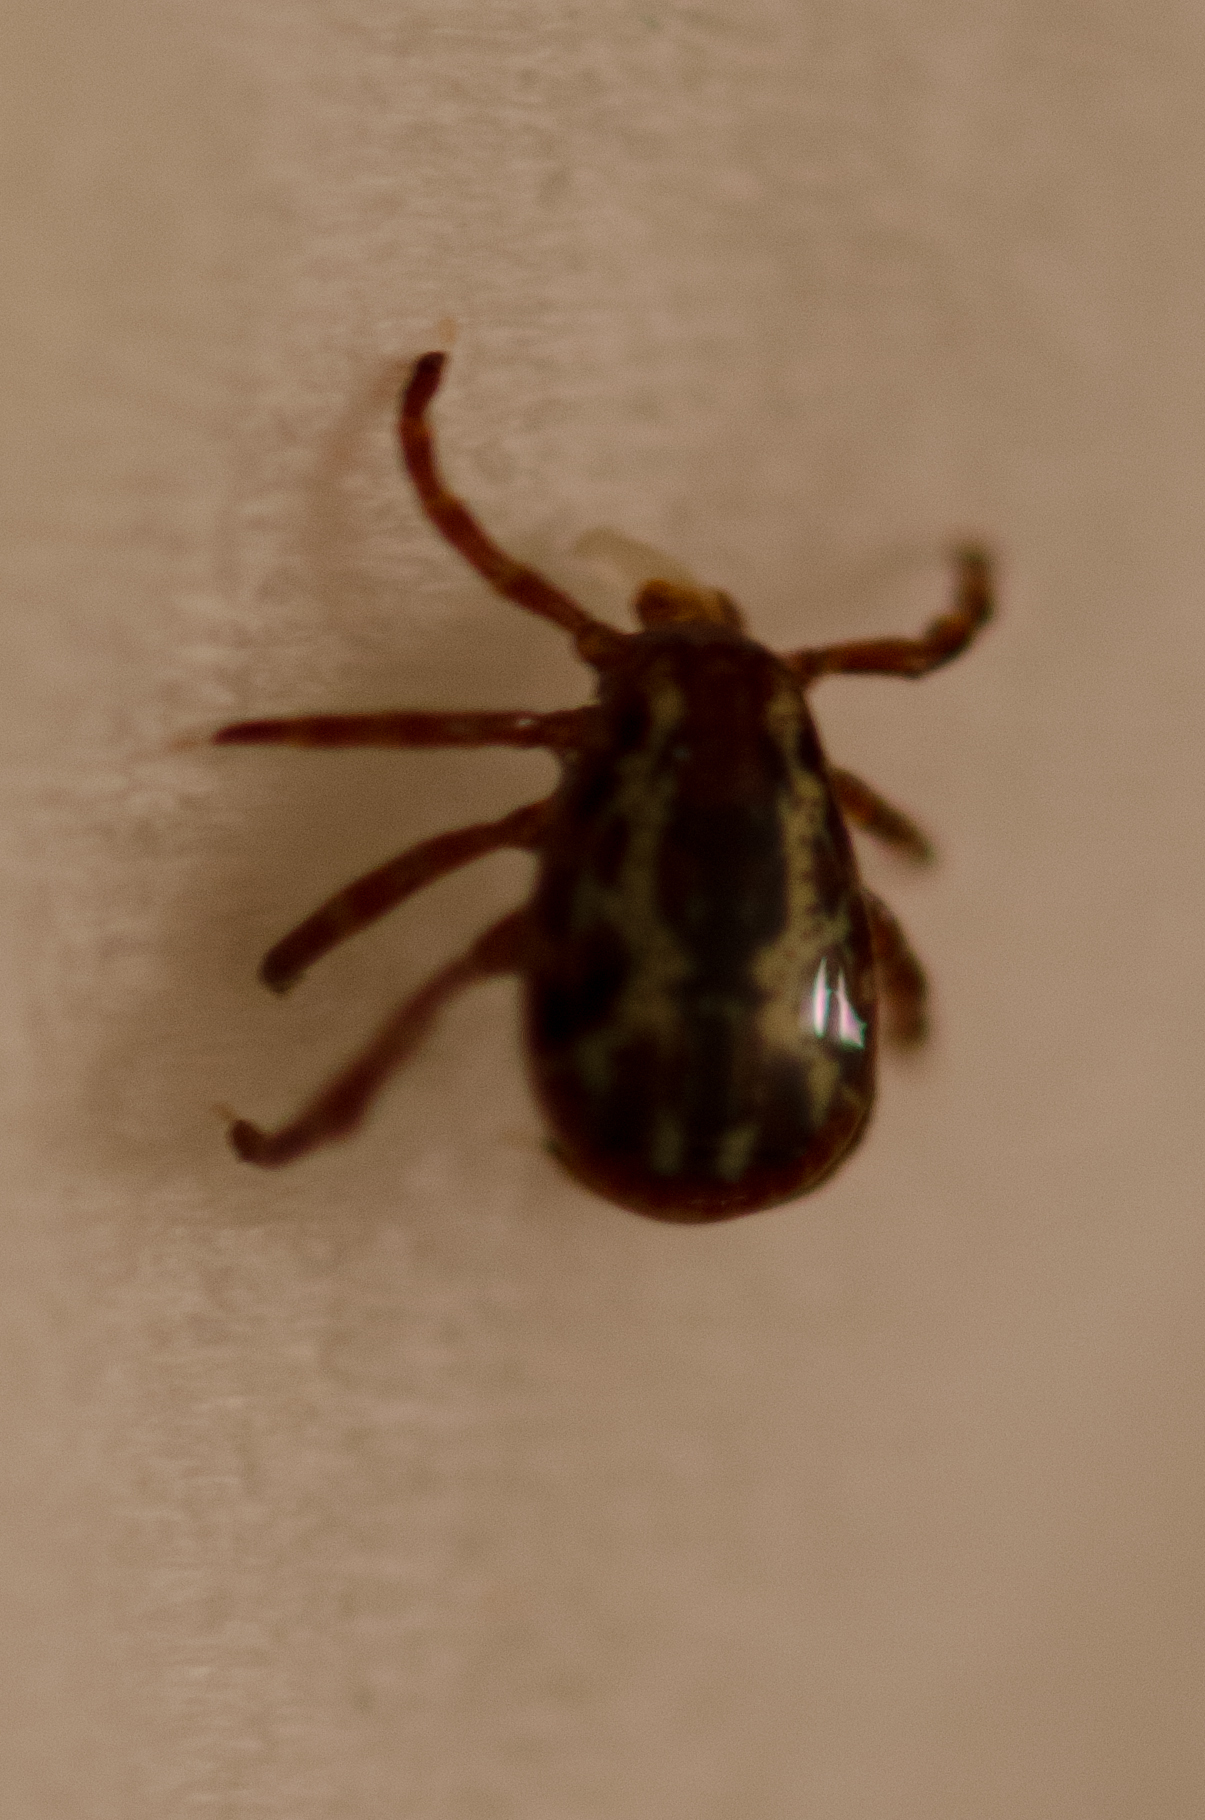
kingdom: Animalia
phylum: Arthropoda
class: Arachnida
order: Ixodida
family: Ixodidae
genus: Dermacentor
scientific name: Dermacentor variabilis
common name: American dog tick
